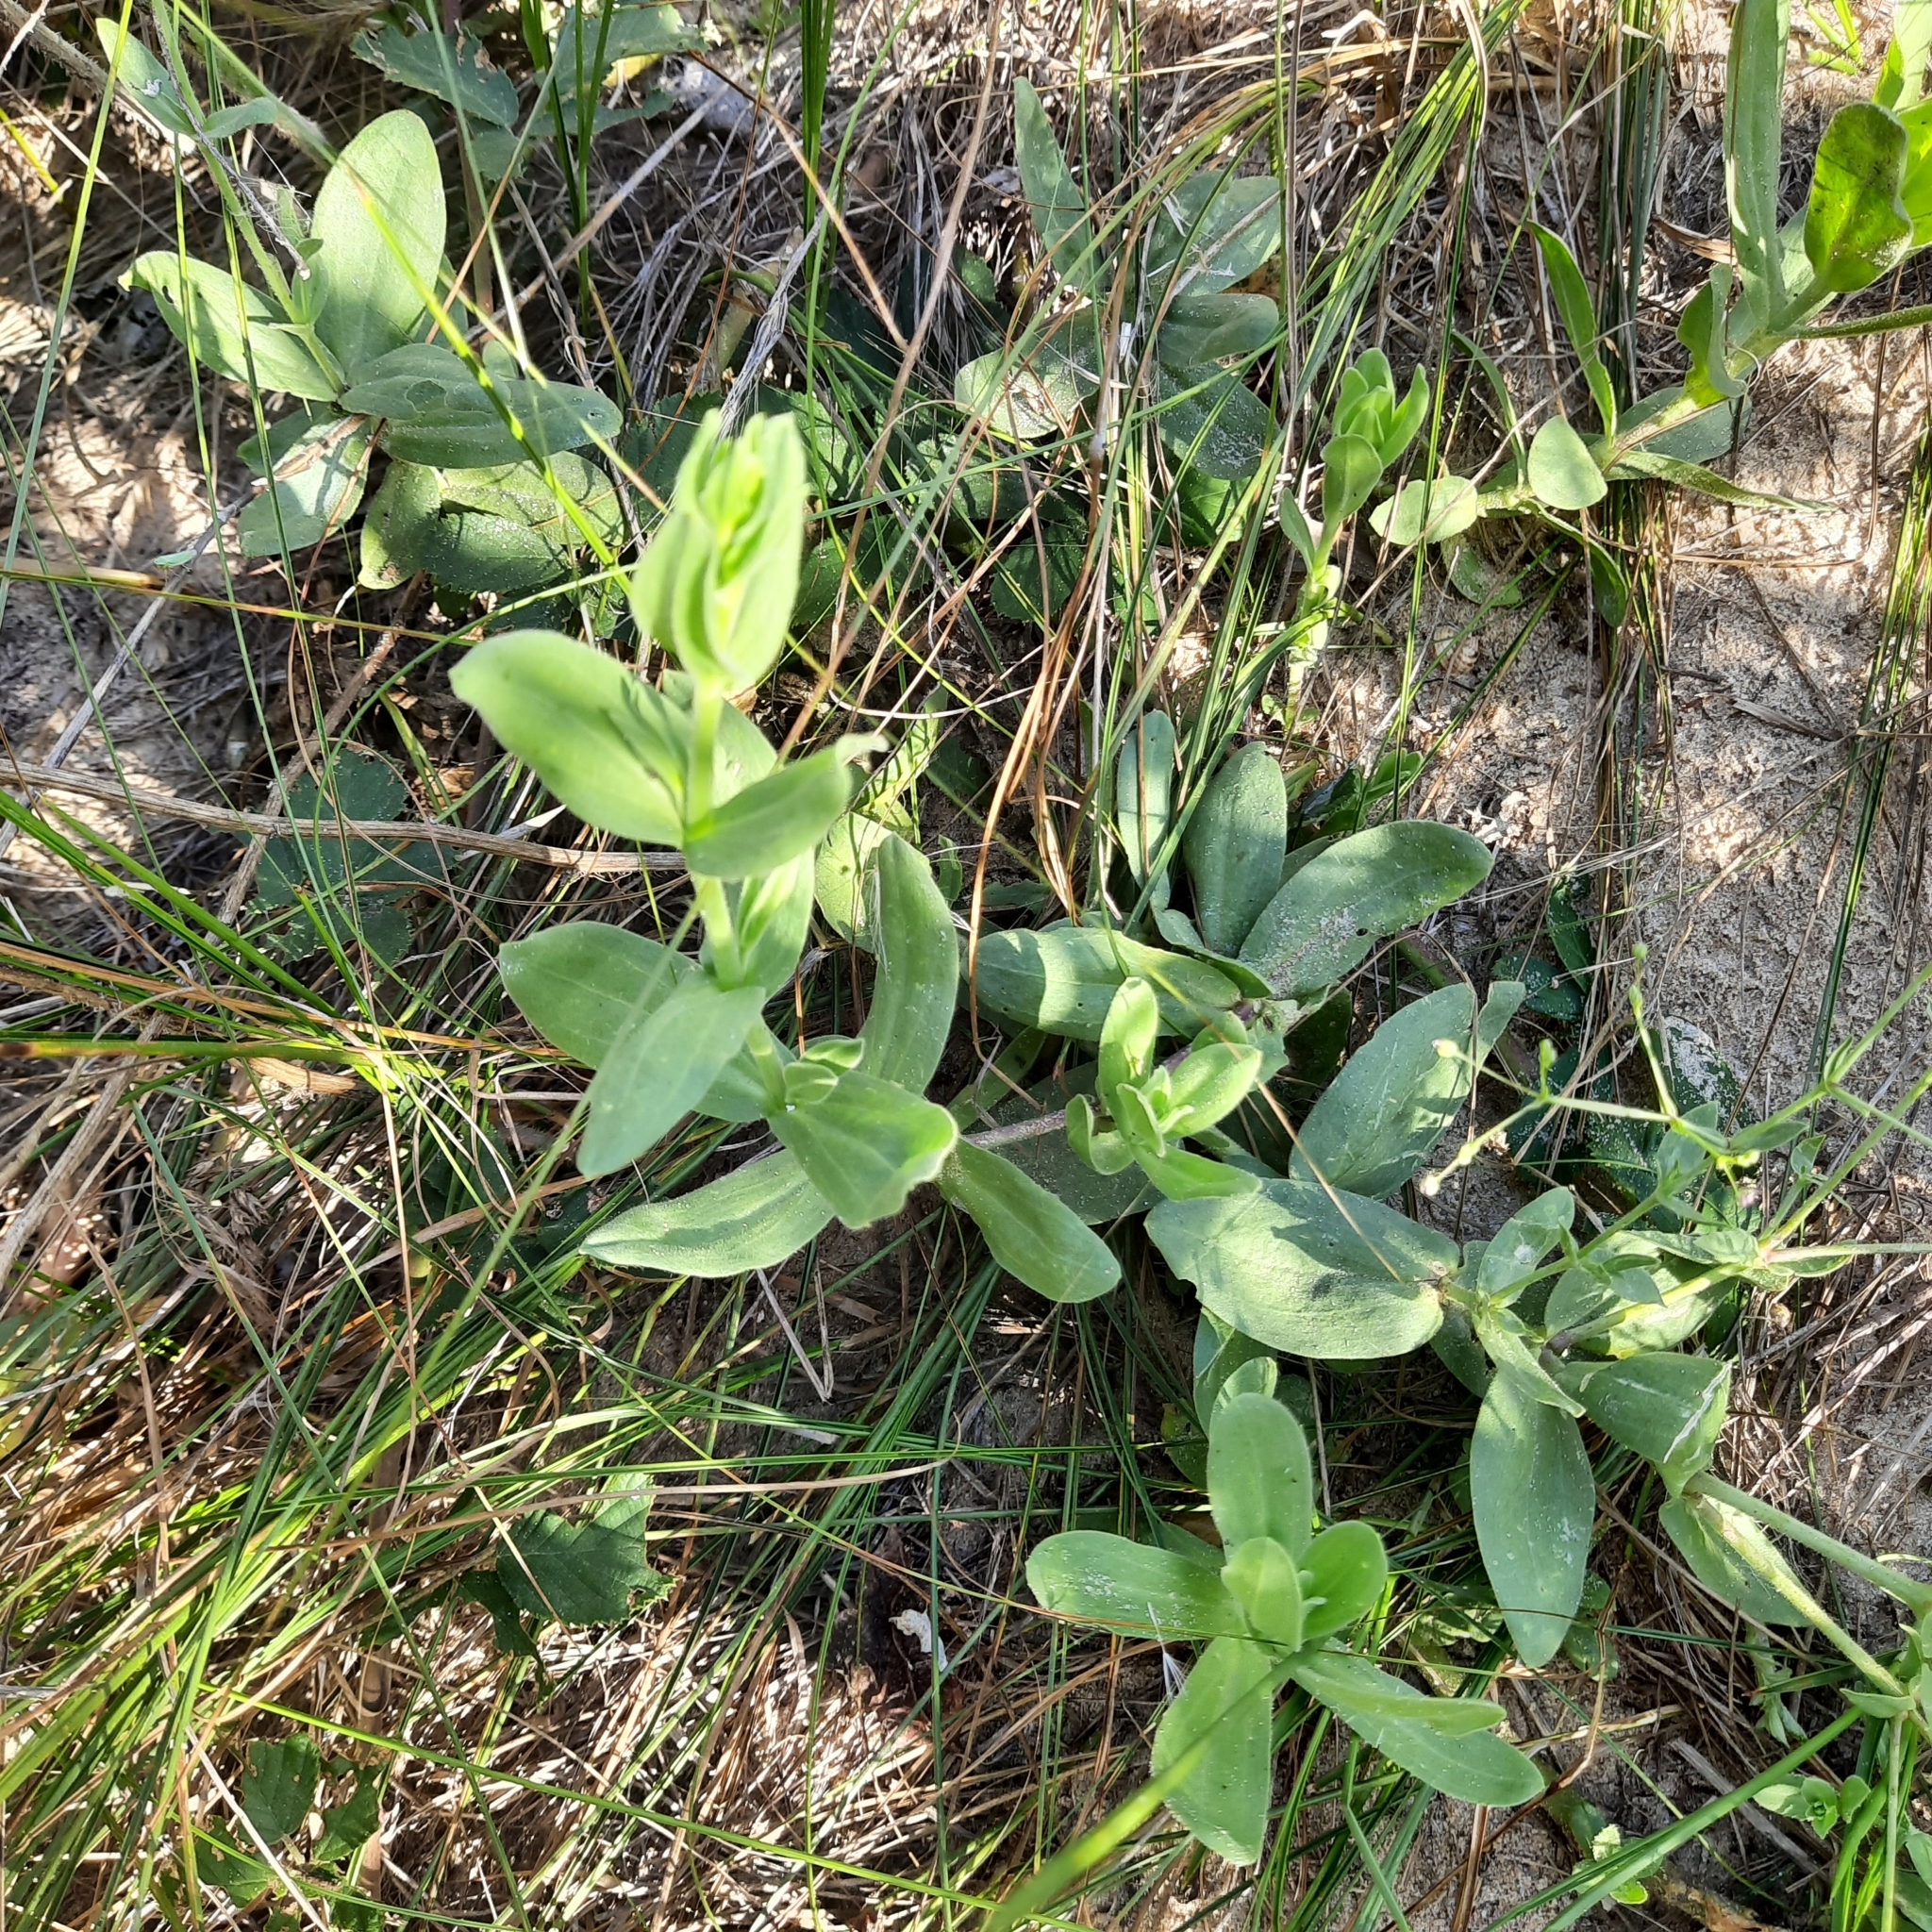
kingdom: Plantae
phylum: Tracheophyta
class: Magnoliopsida
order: Caryophyllales
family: Caryophyllaceae
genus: Gypsophila
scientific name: Gypsophila perfoliata
